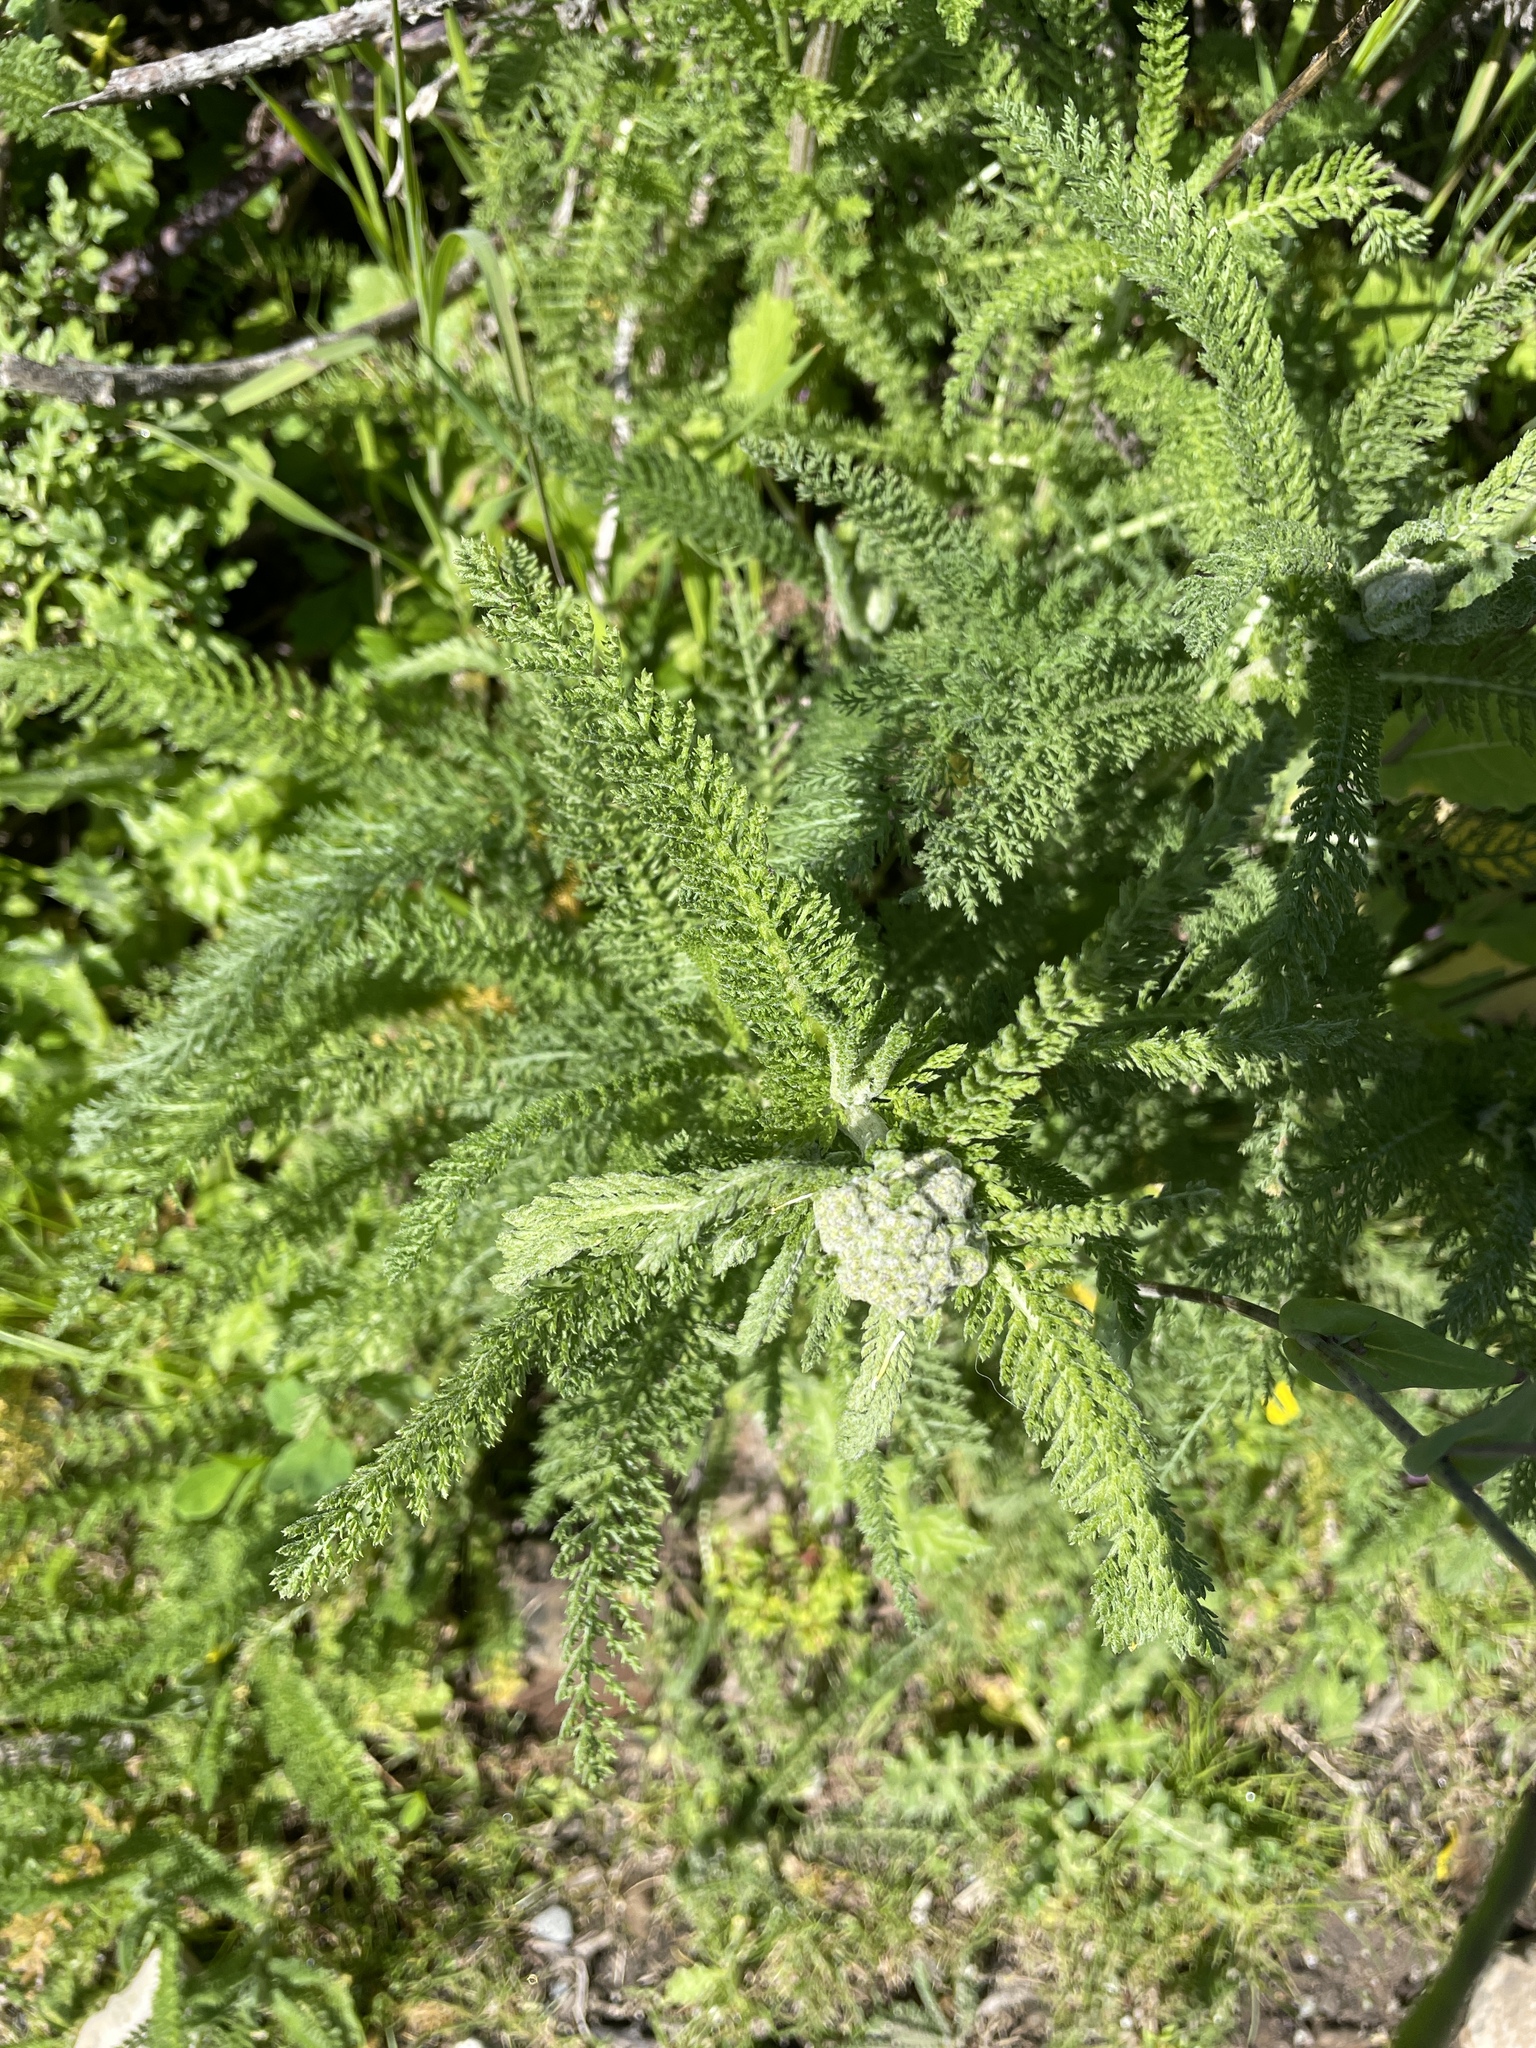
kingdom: Plantae
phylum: Tracheophyta
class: Magnoliopsida
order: Asterales
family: Asteraceae
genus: Achillea
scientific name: Achillea millefolium
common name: Yarrow
